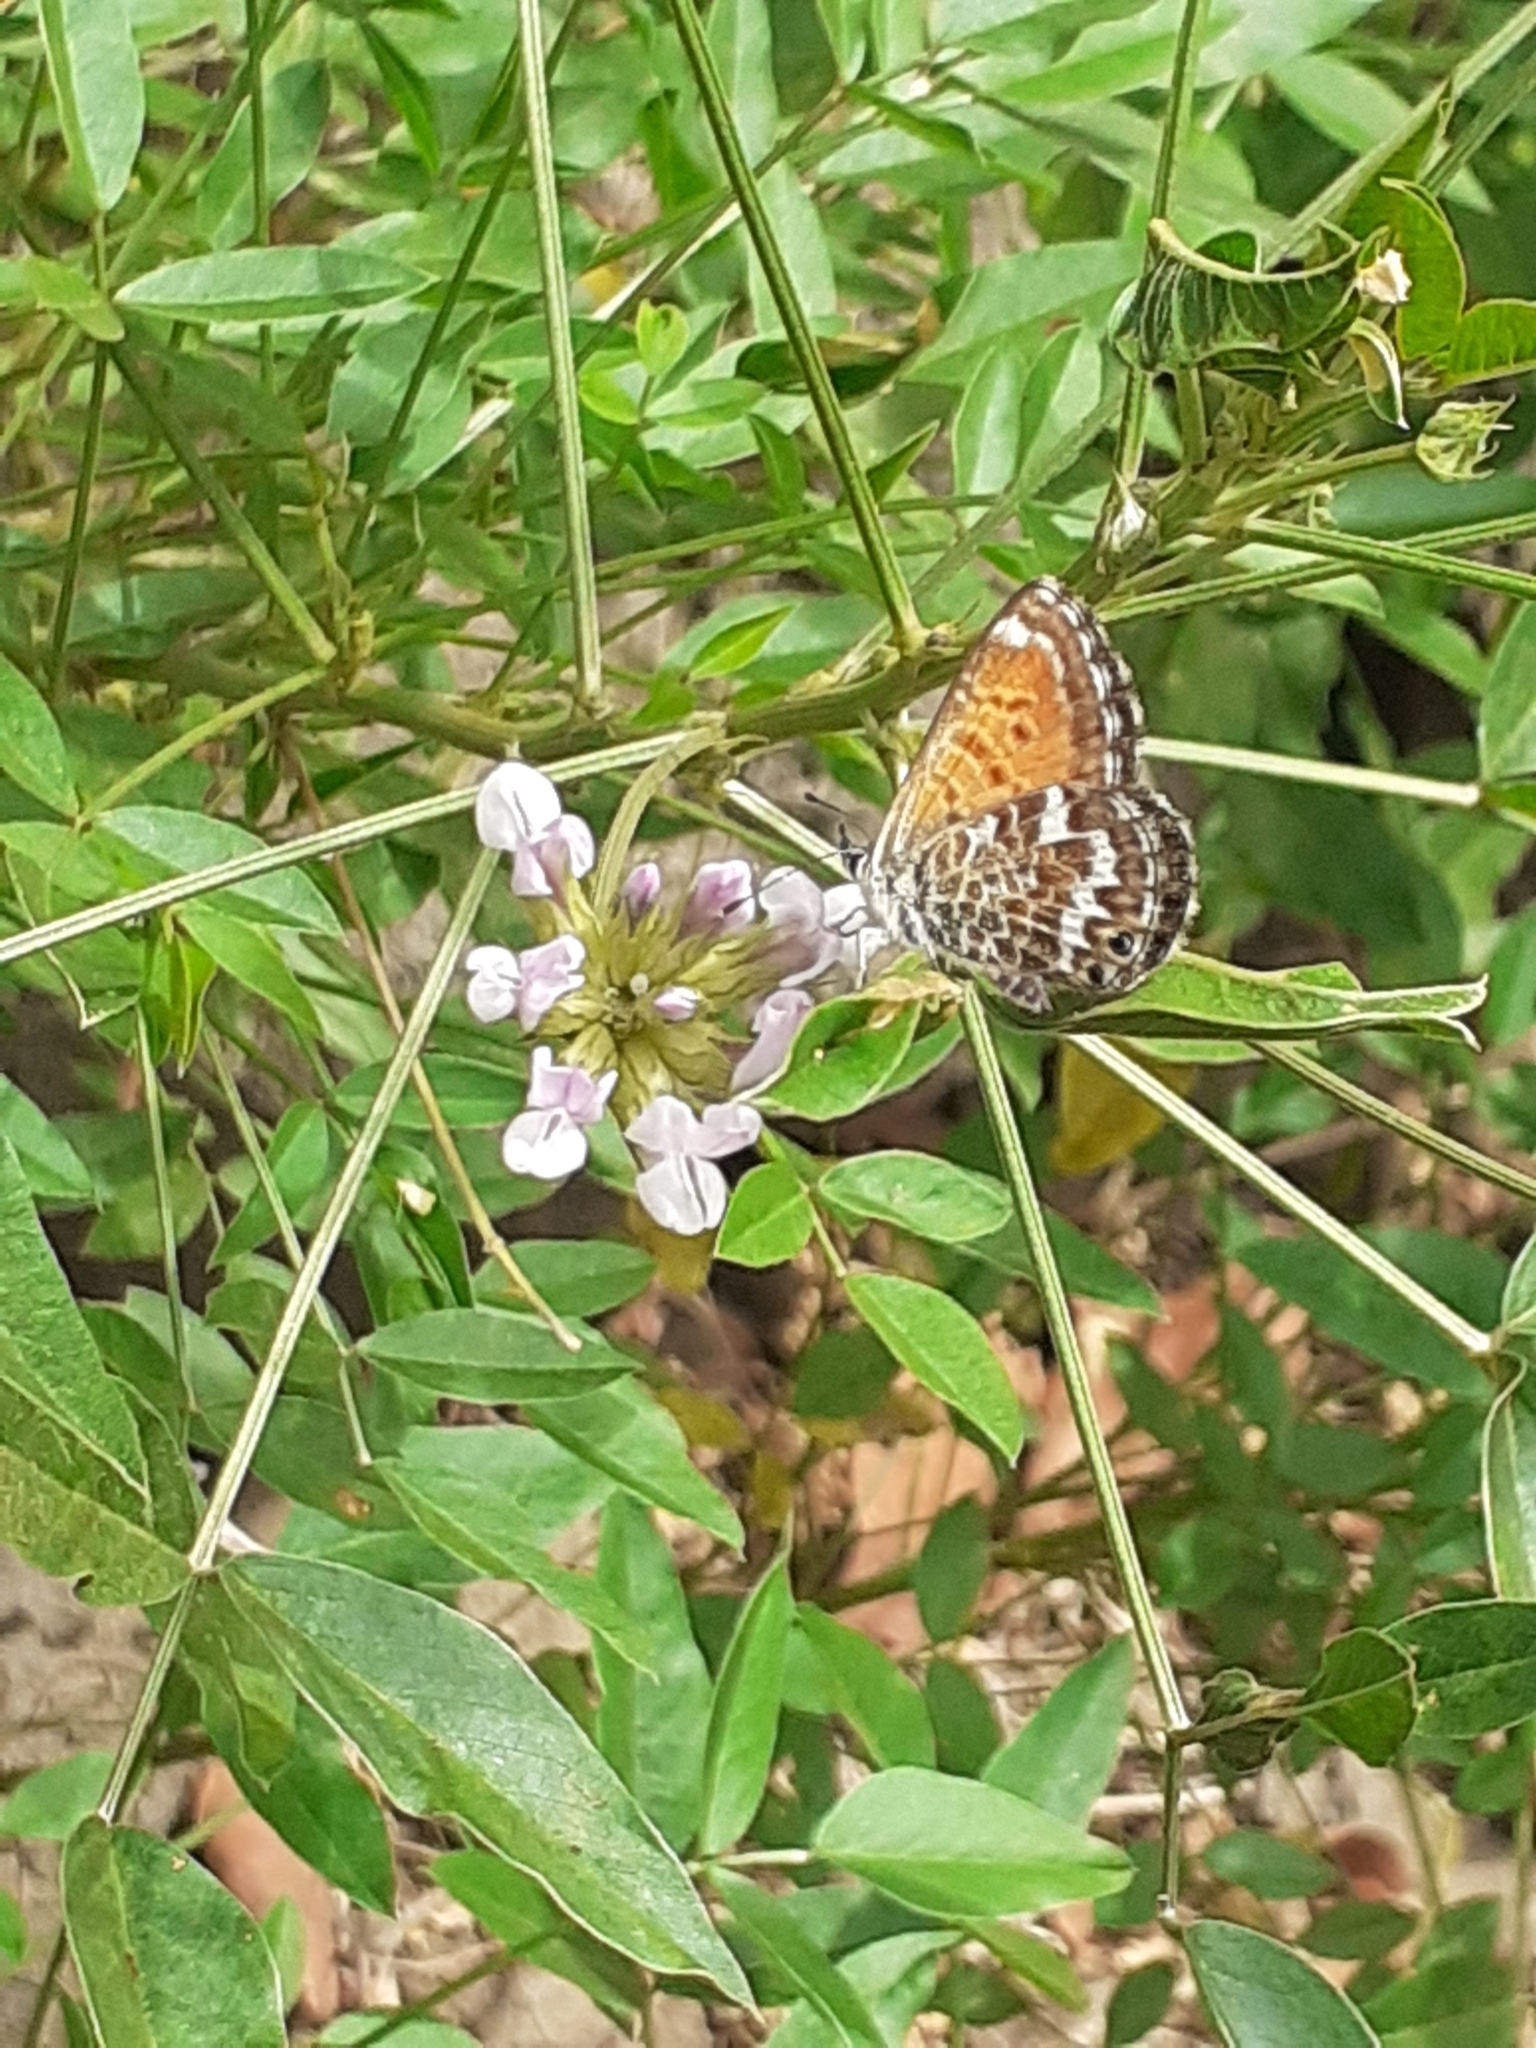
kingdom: Animalia
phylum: Arthropoda
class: Insecta
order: Lepidoptera
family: Lycaenidae
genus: Cyclyrius
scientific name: Cyclyrius webbianus
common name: Canary blue
